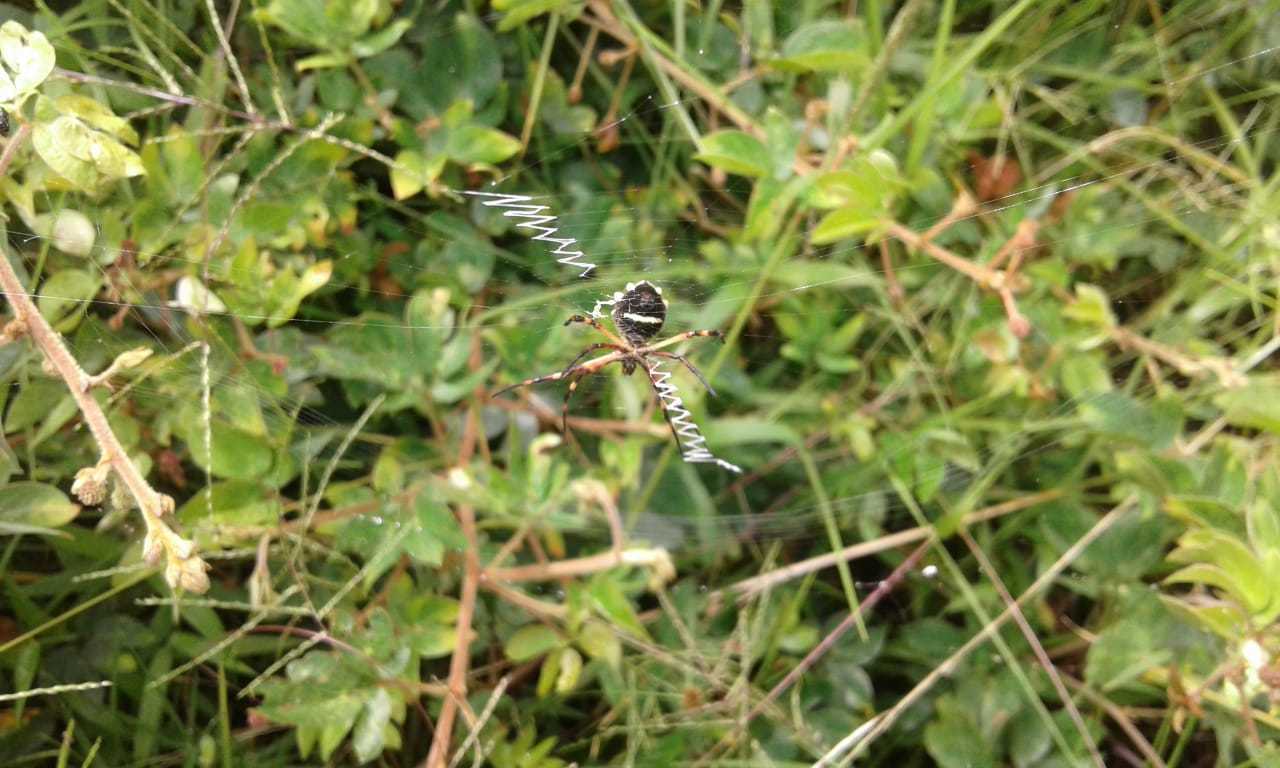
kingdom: Animalia
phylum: Arthropoda
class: Arachnida
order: Araneae
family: Araneidae
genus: Argiope
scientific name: Argiope argentata
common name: Orb weavers
